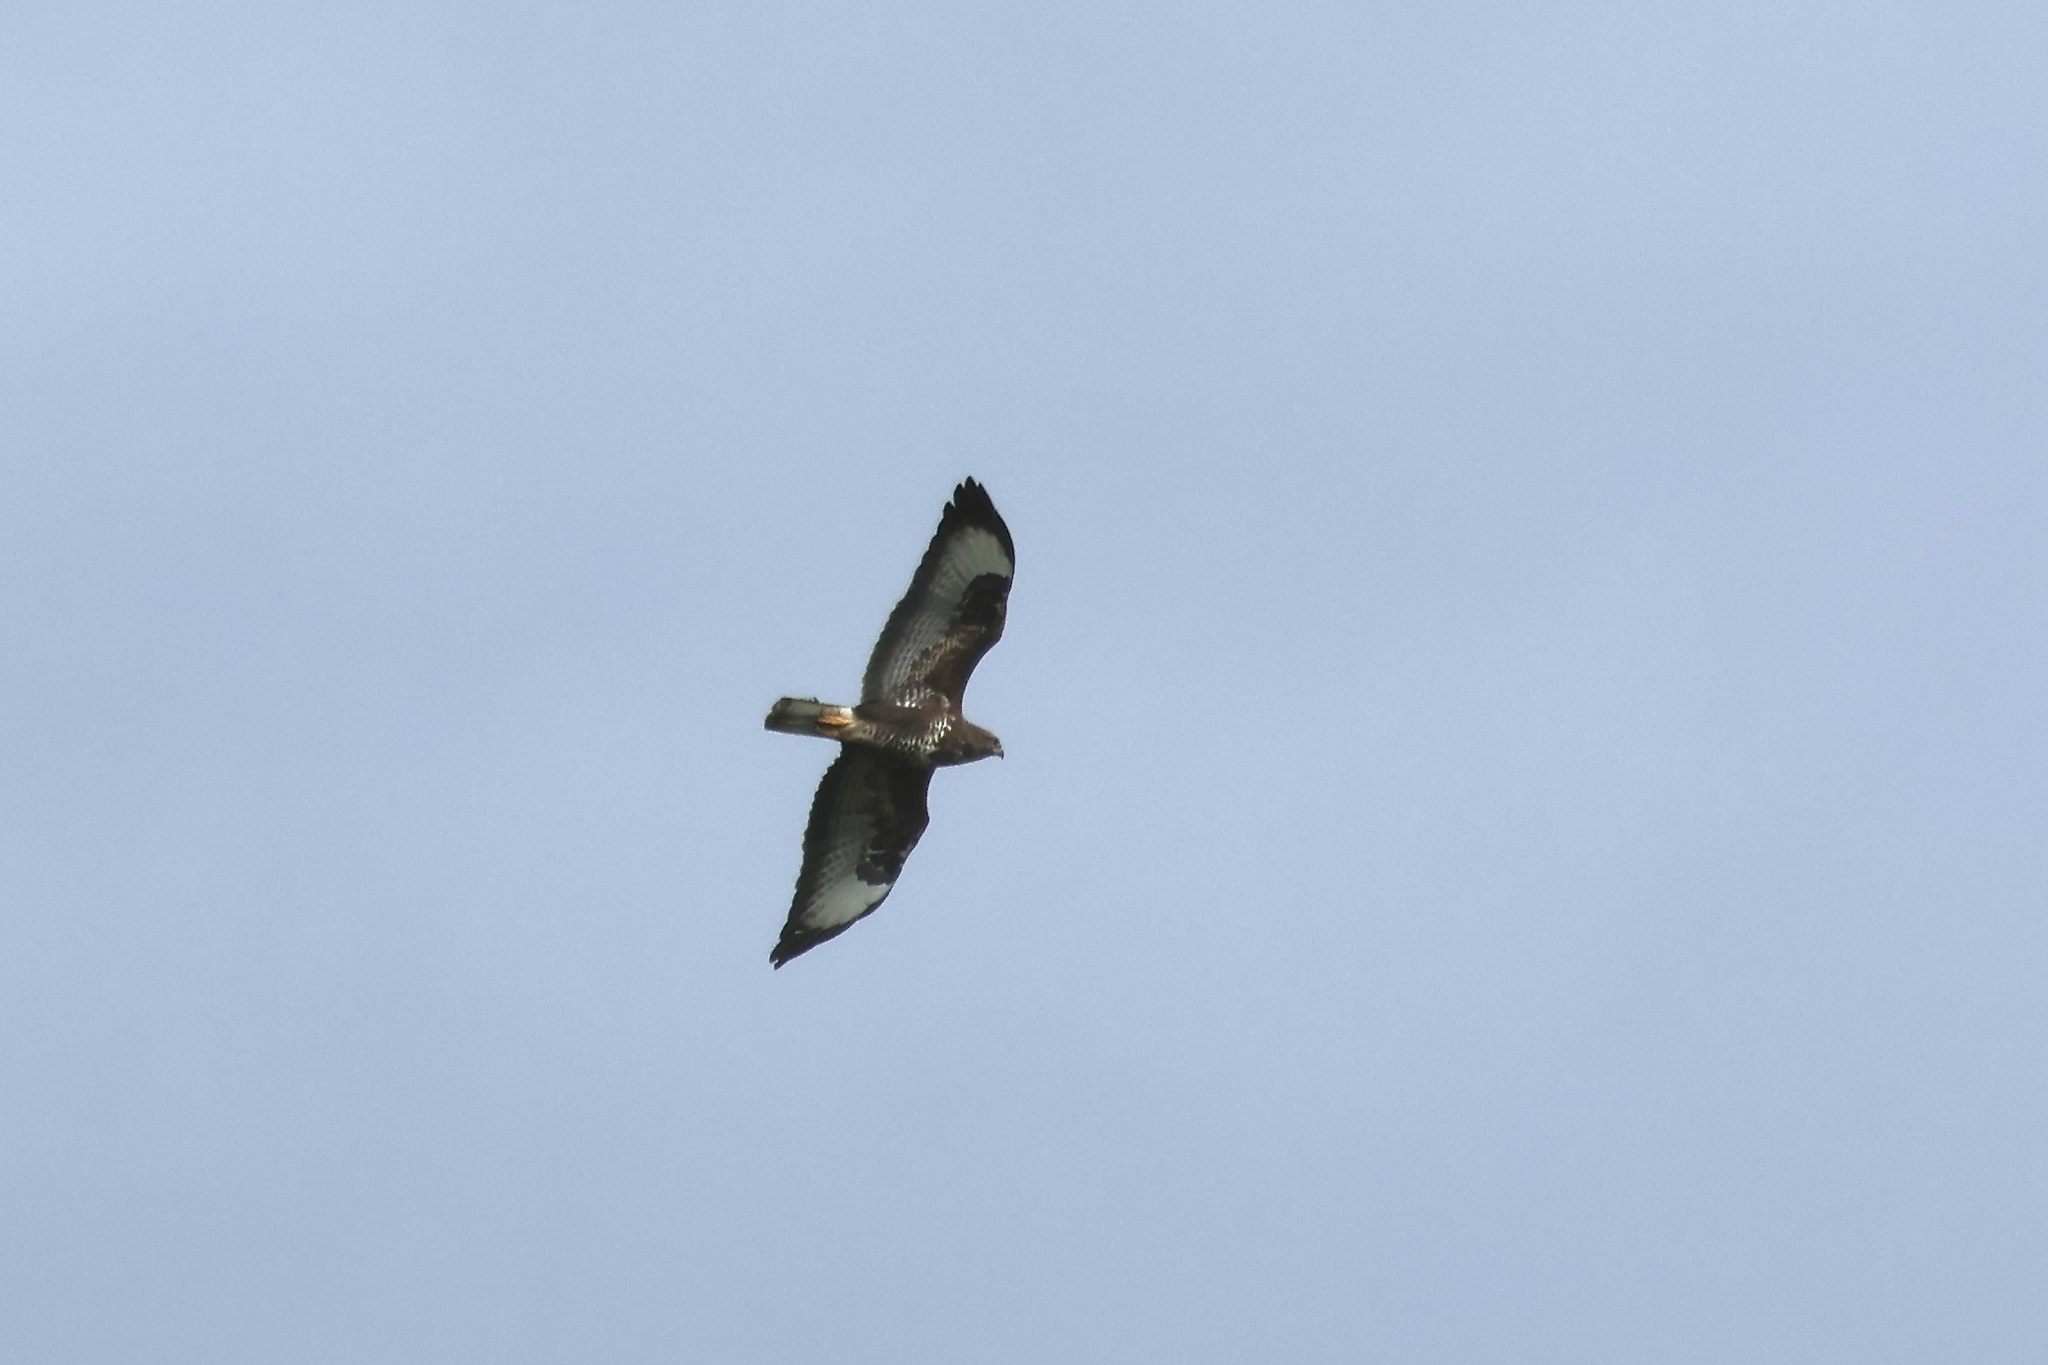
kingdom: Animalia
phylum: Chordata
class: Aves
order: Accipitriformes
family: Accipitridae
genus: Buteo
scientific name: Buteo buteo
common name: Common buzzard
